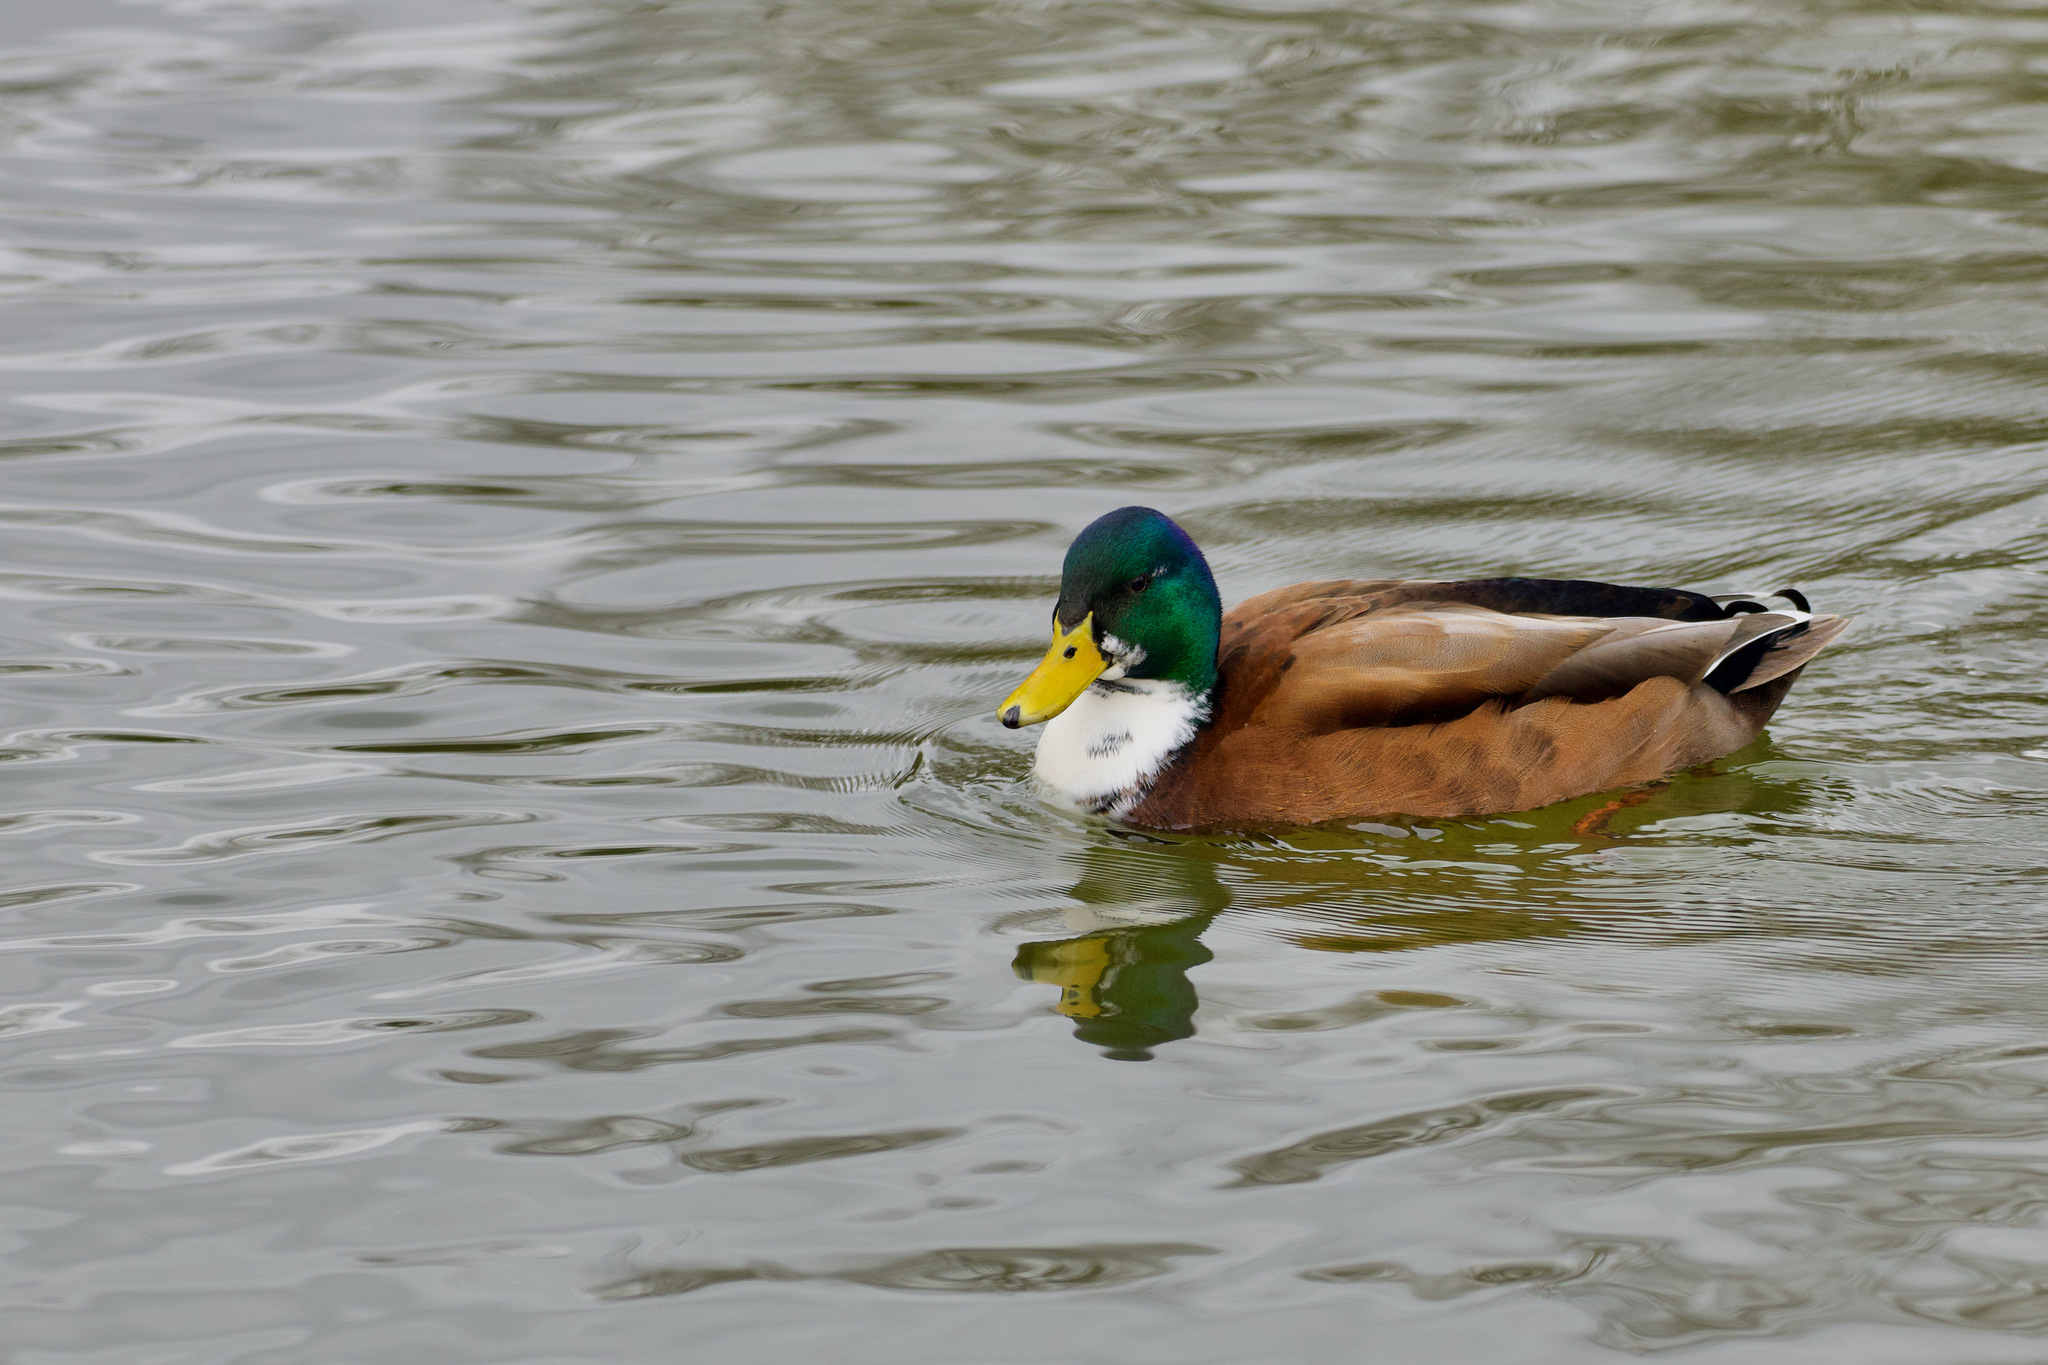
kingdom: Animalia
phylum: Chordata
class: Aves
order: Anseriformes
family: Anatidae
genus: Anas
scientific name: Anas platyrhynchos
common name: Mallard
